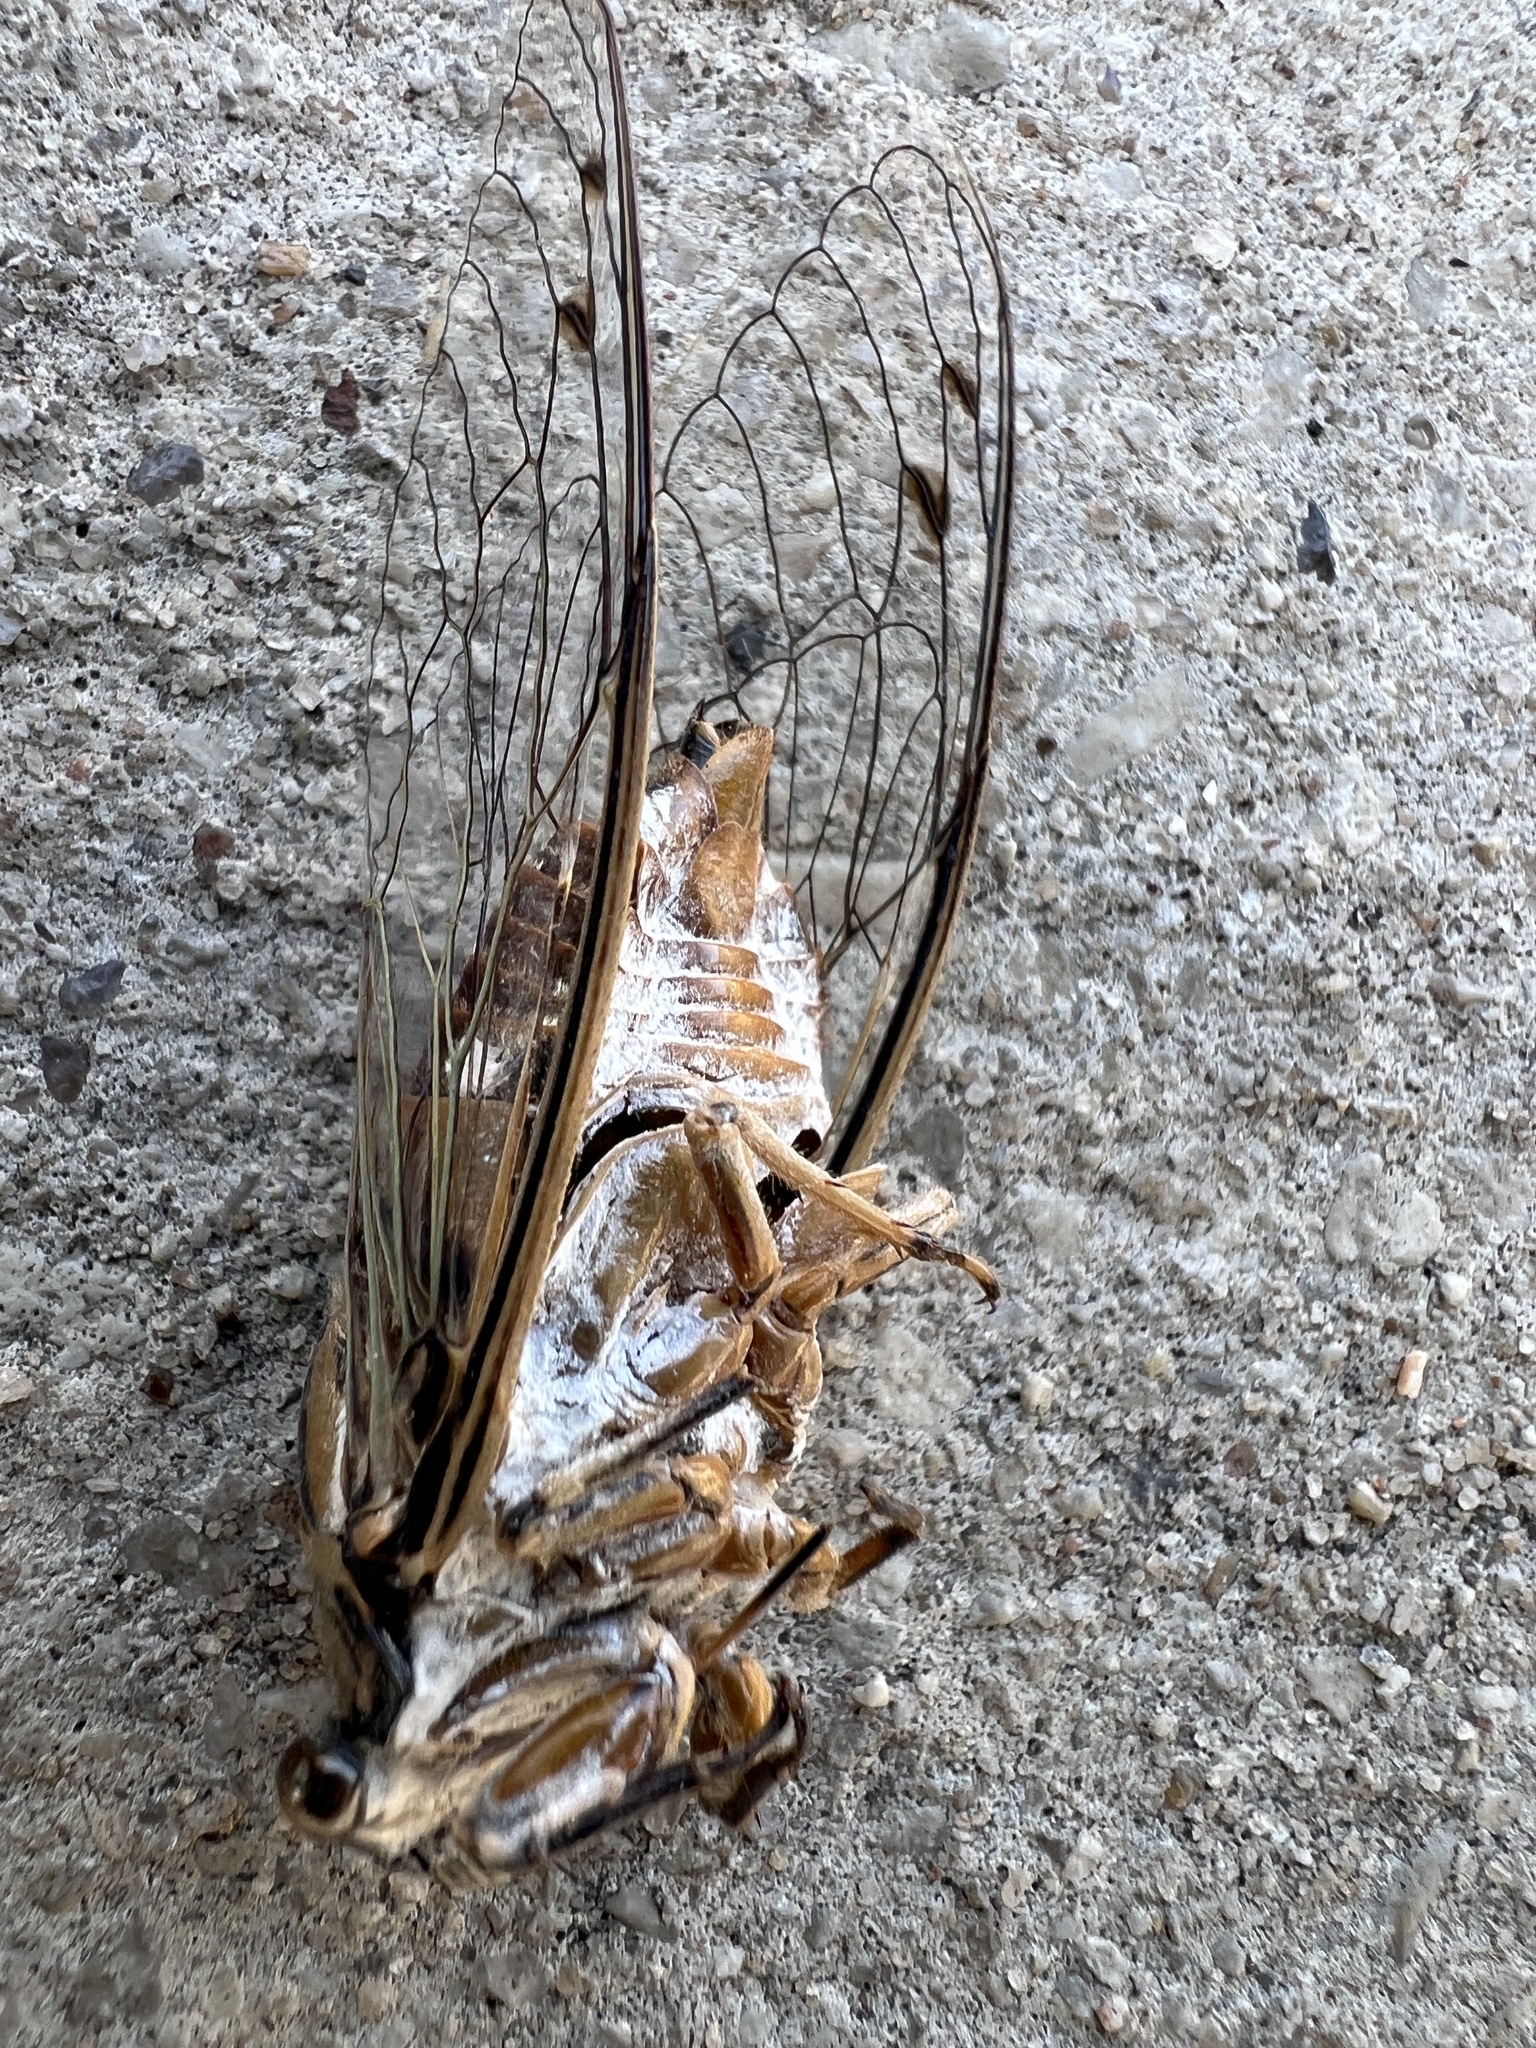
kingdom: Animalia
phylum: Arthropoda
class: Insecta
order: Hemiptera
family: Cicadidae
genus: Hadoa
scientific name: Hadoa texana
